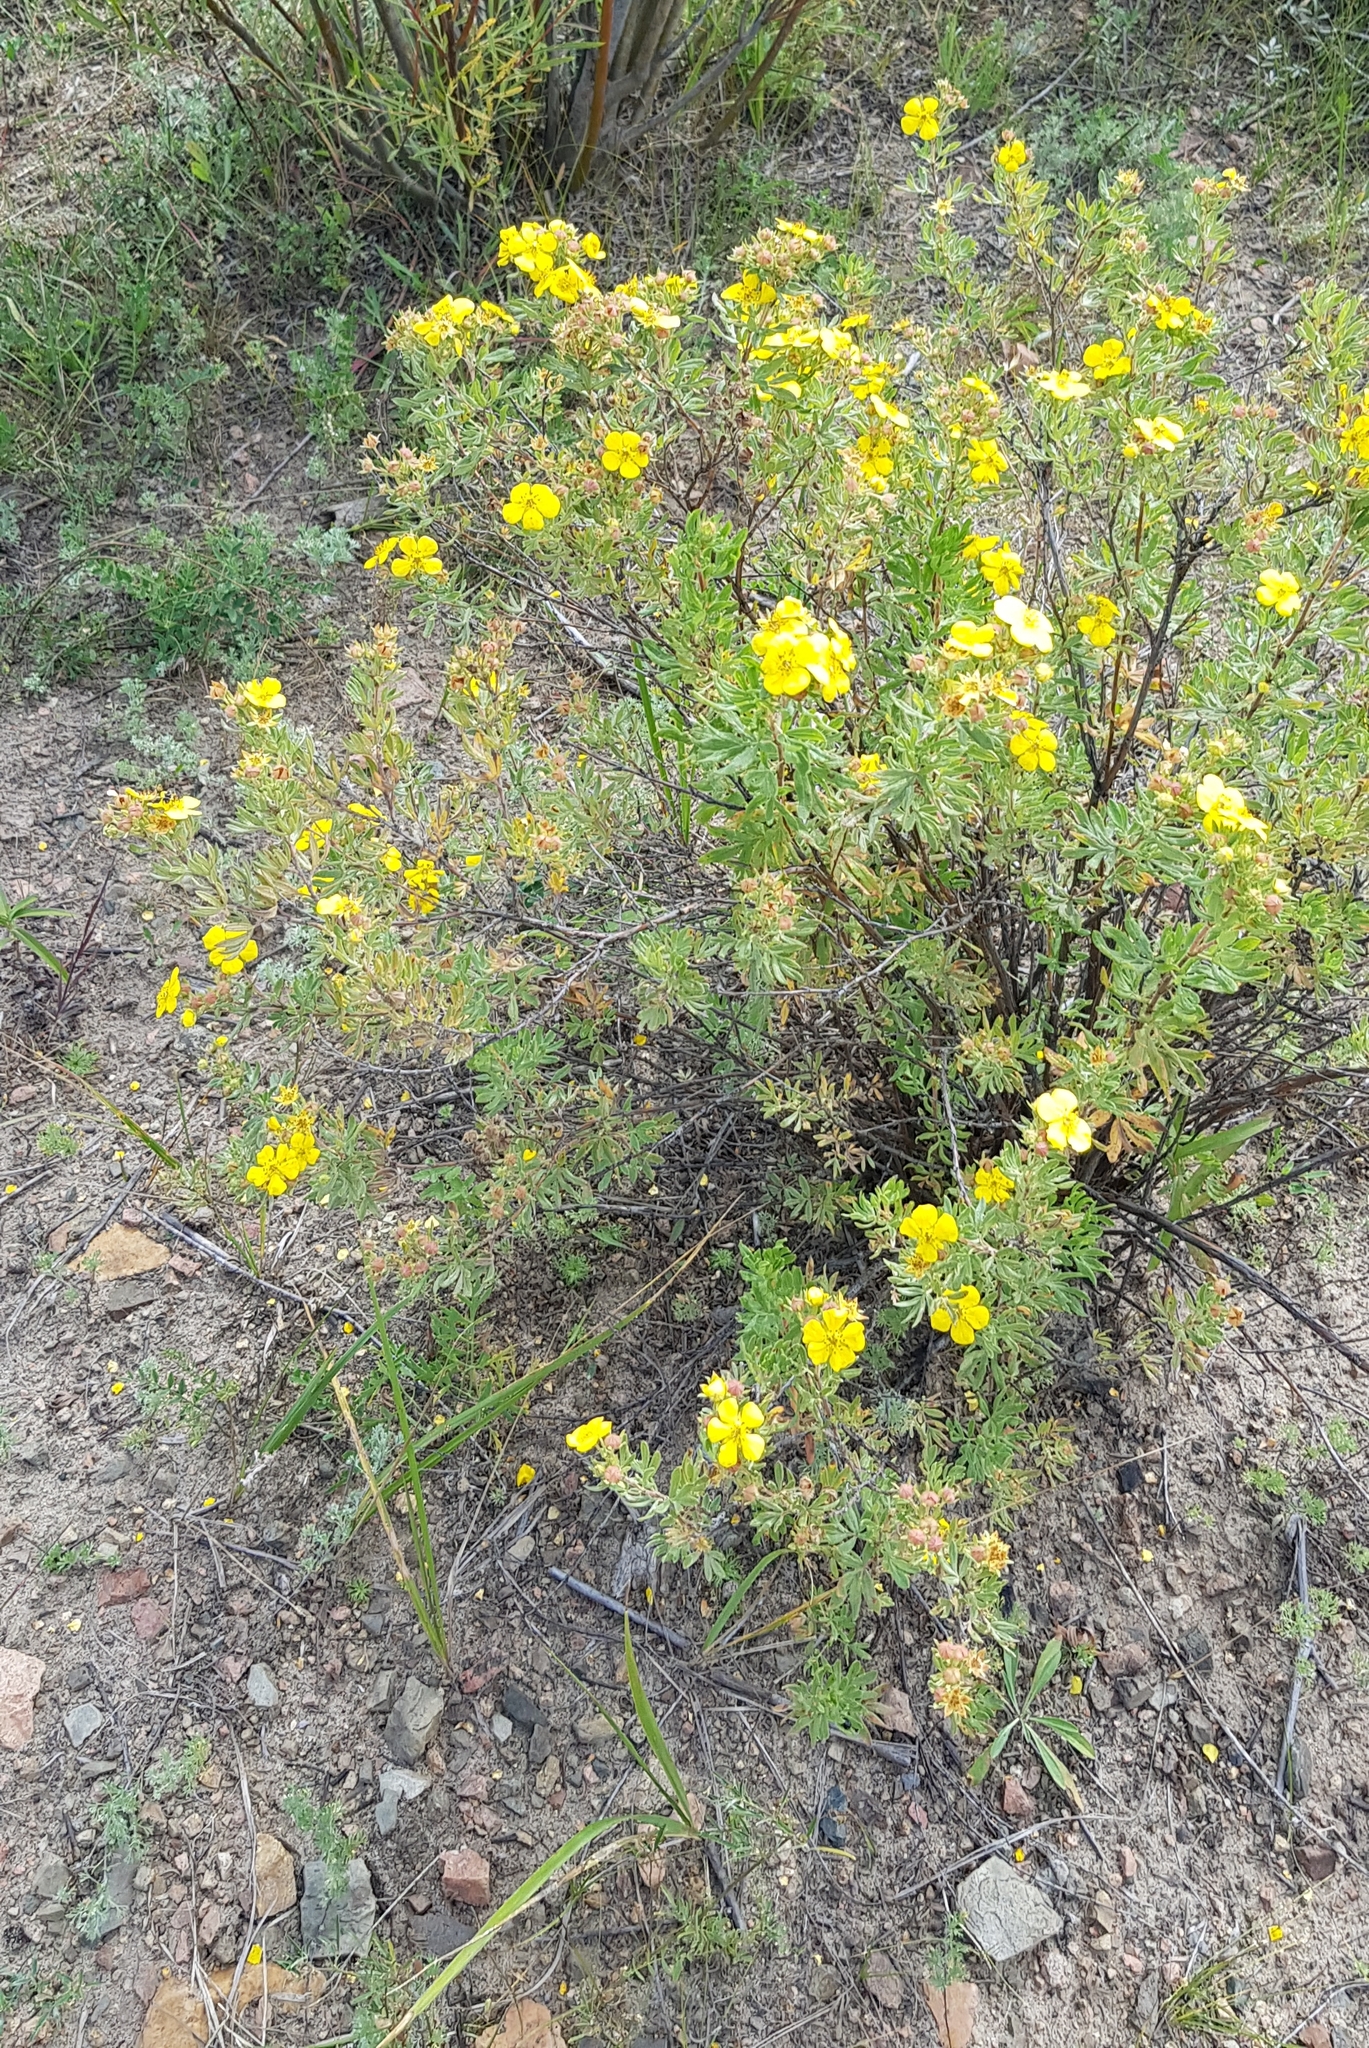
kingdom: Plantae
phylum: Tracheophyta
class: Magnoliopsida
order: Rosales
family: Rosaceae
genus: Dasiphora
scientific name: Dasiphora fruticosa
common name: Shrubby cinquefoil
